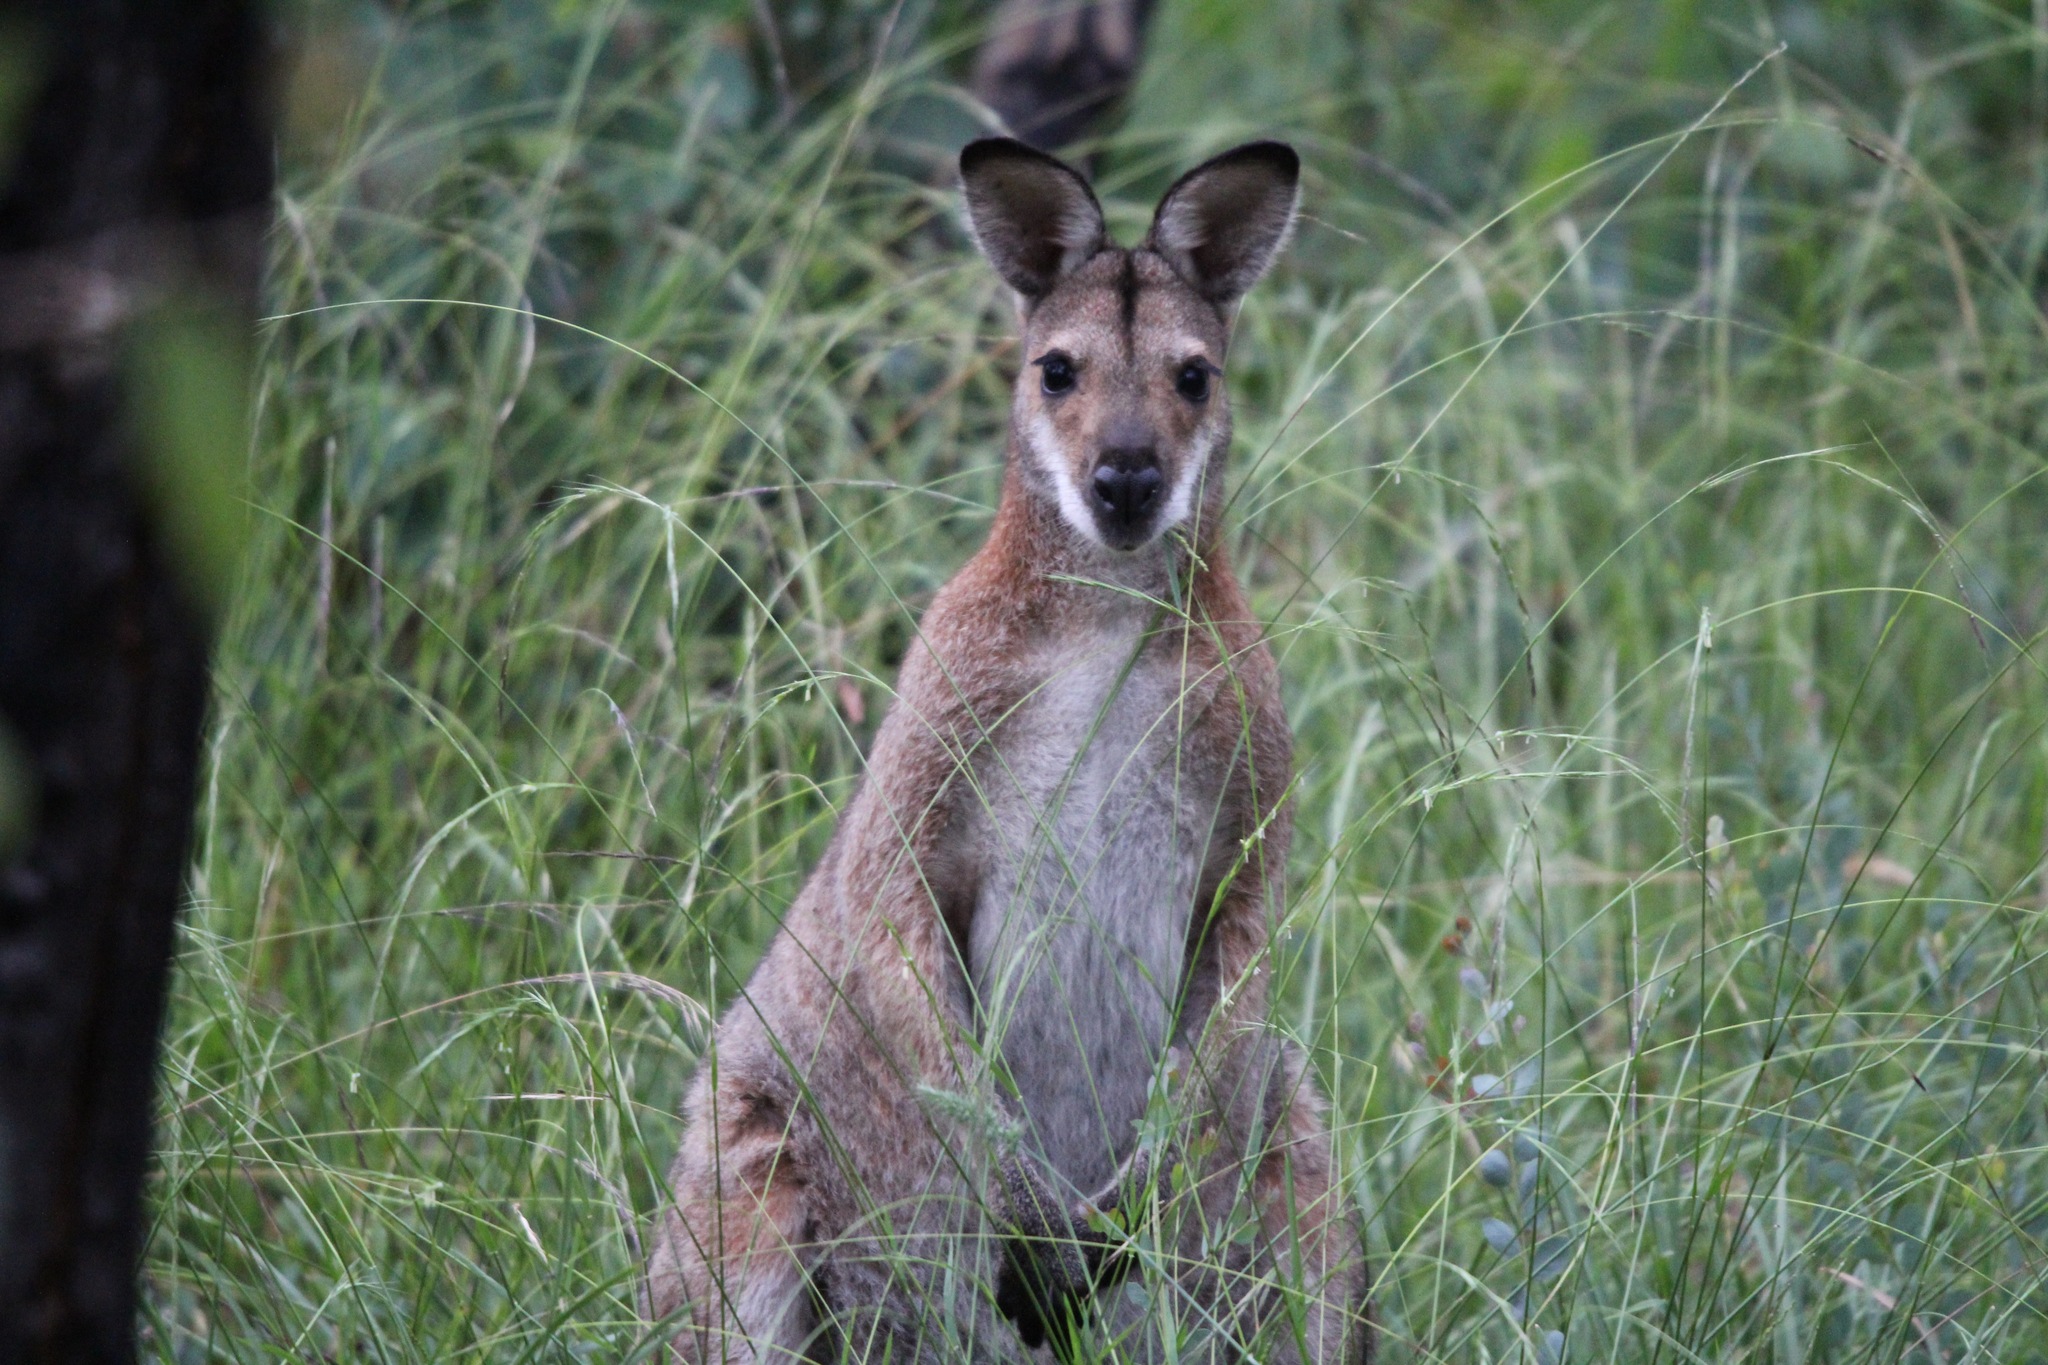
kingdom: Animalia
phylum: Chordata
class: Mammalia
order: Diprotodontia
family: Macropodidae
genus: Notamacropus
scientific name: Notamacropus rufogriseus
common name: Red-necked wallaby
